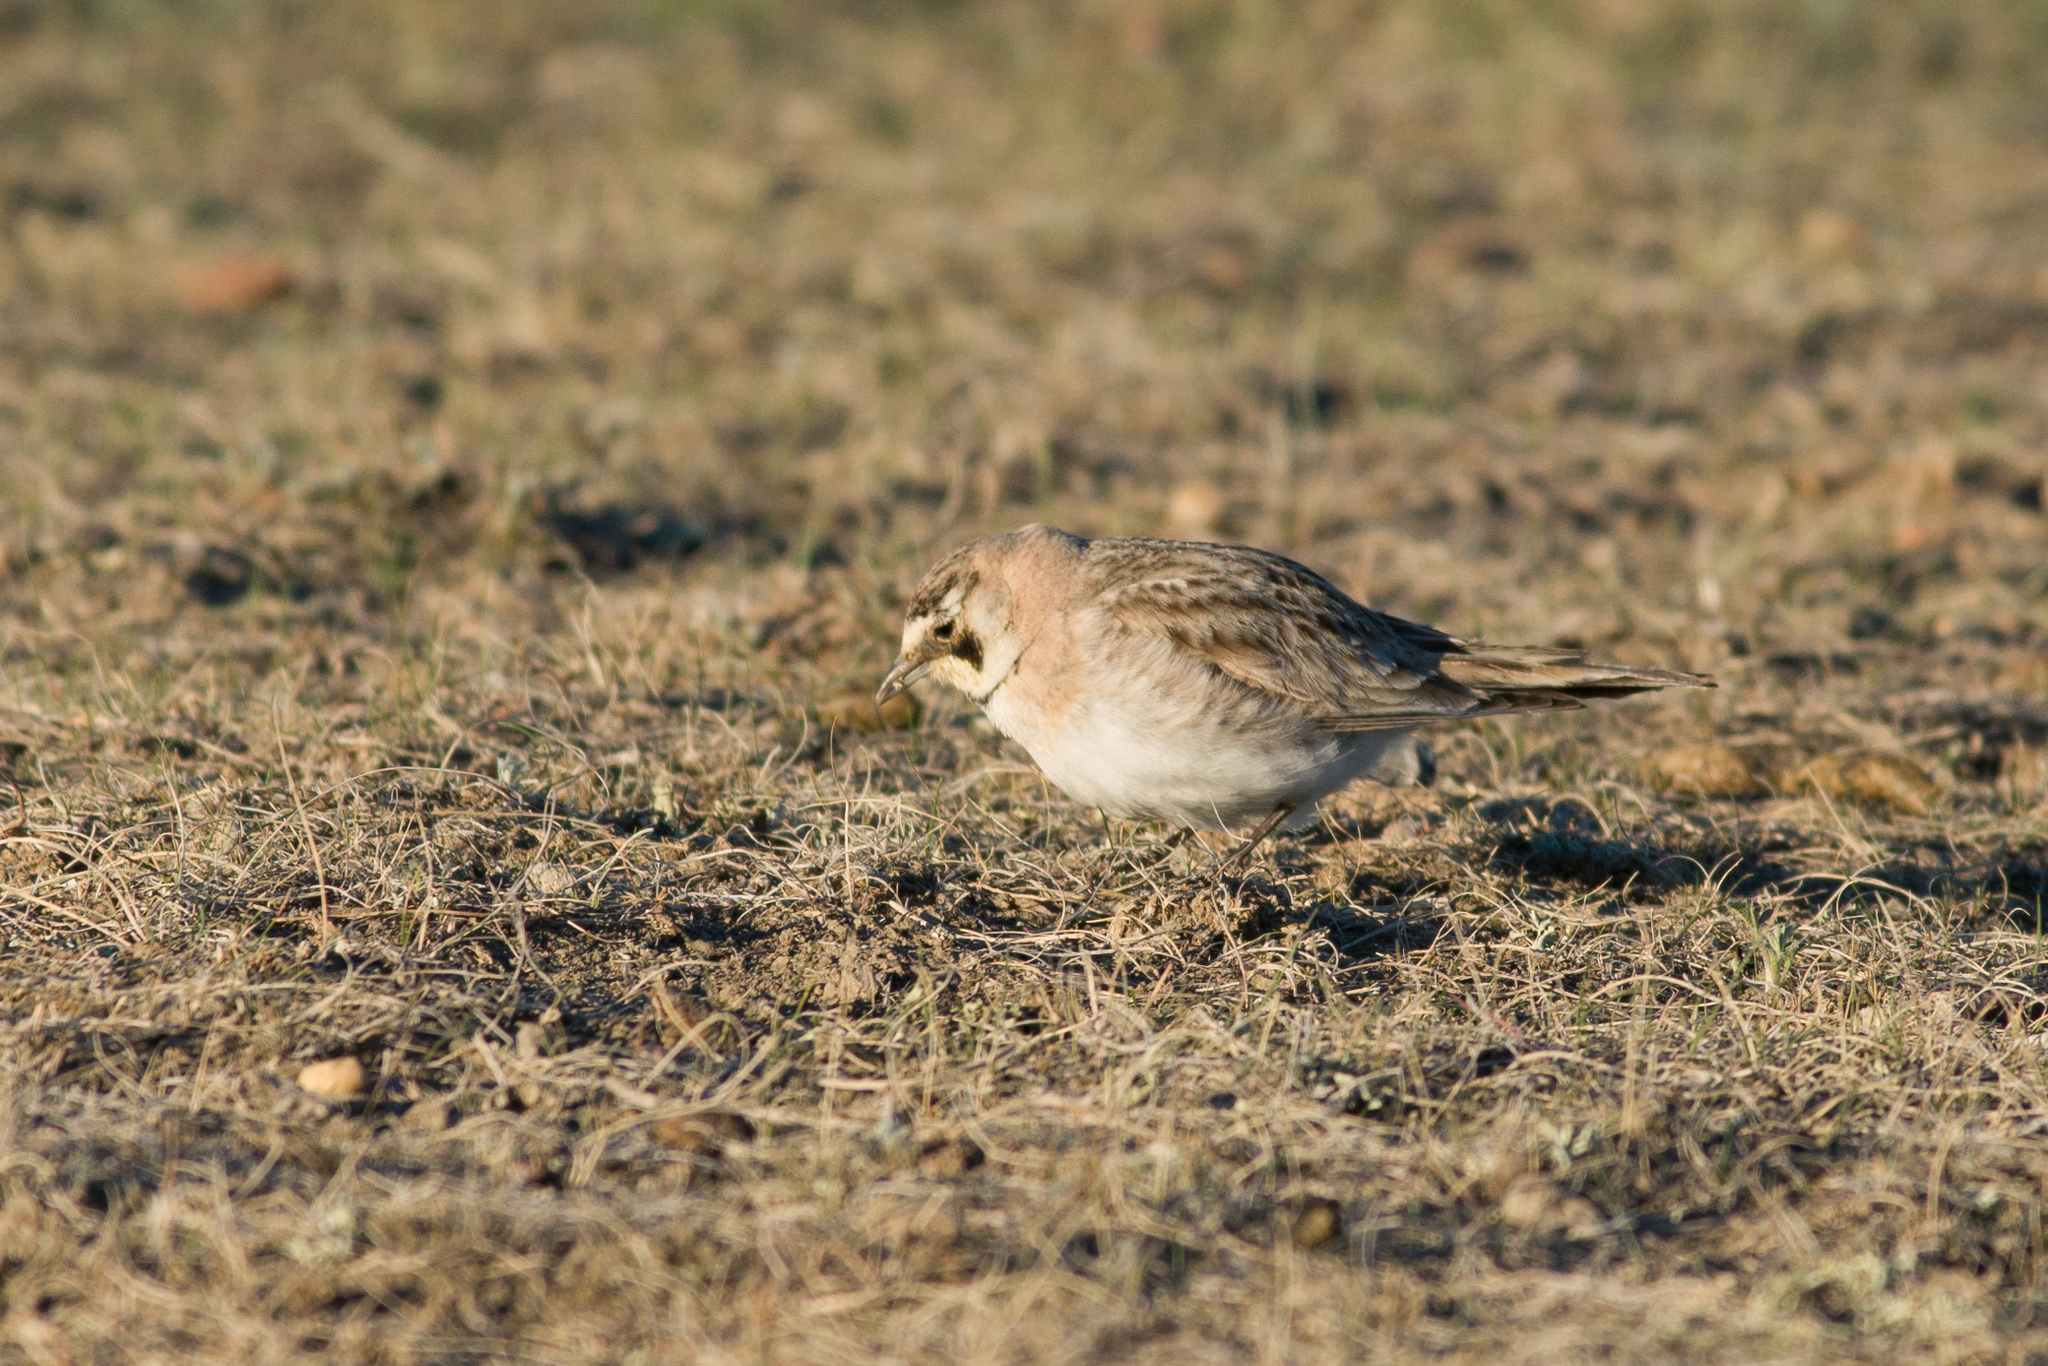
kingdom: Animalia
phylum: Chordata
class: Aves
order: Passeriformes
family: Alaudidae
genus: Eremophila
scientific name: Eremophila alpestris
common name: Horned lark
